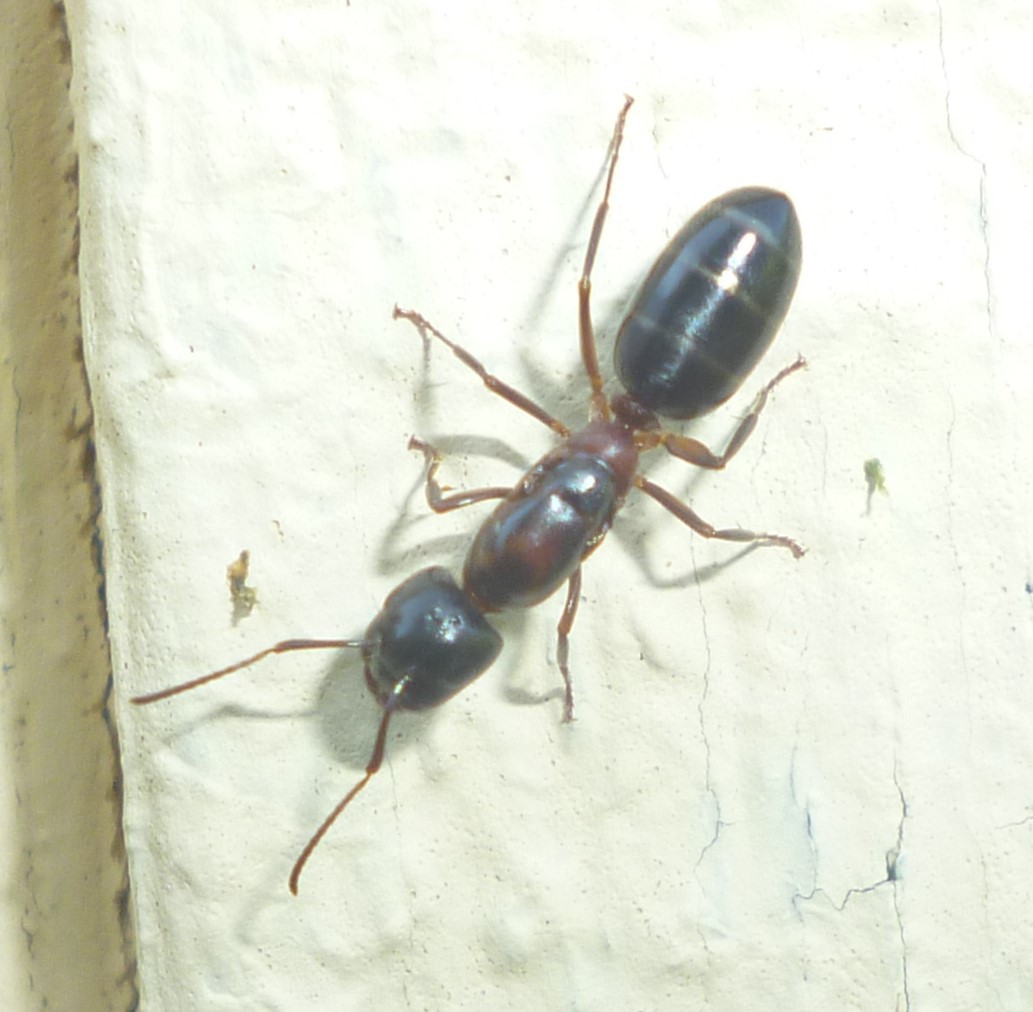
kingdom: Animalia
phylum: Arthropoda
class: Insecta
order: Hymenoptera
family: Formicidae
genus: Camponotus
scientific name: Camponotus nearcticus
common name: Smaller carpenter ant
